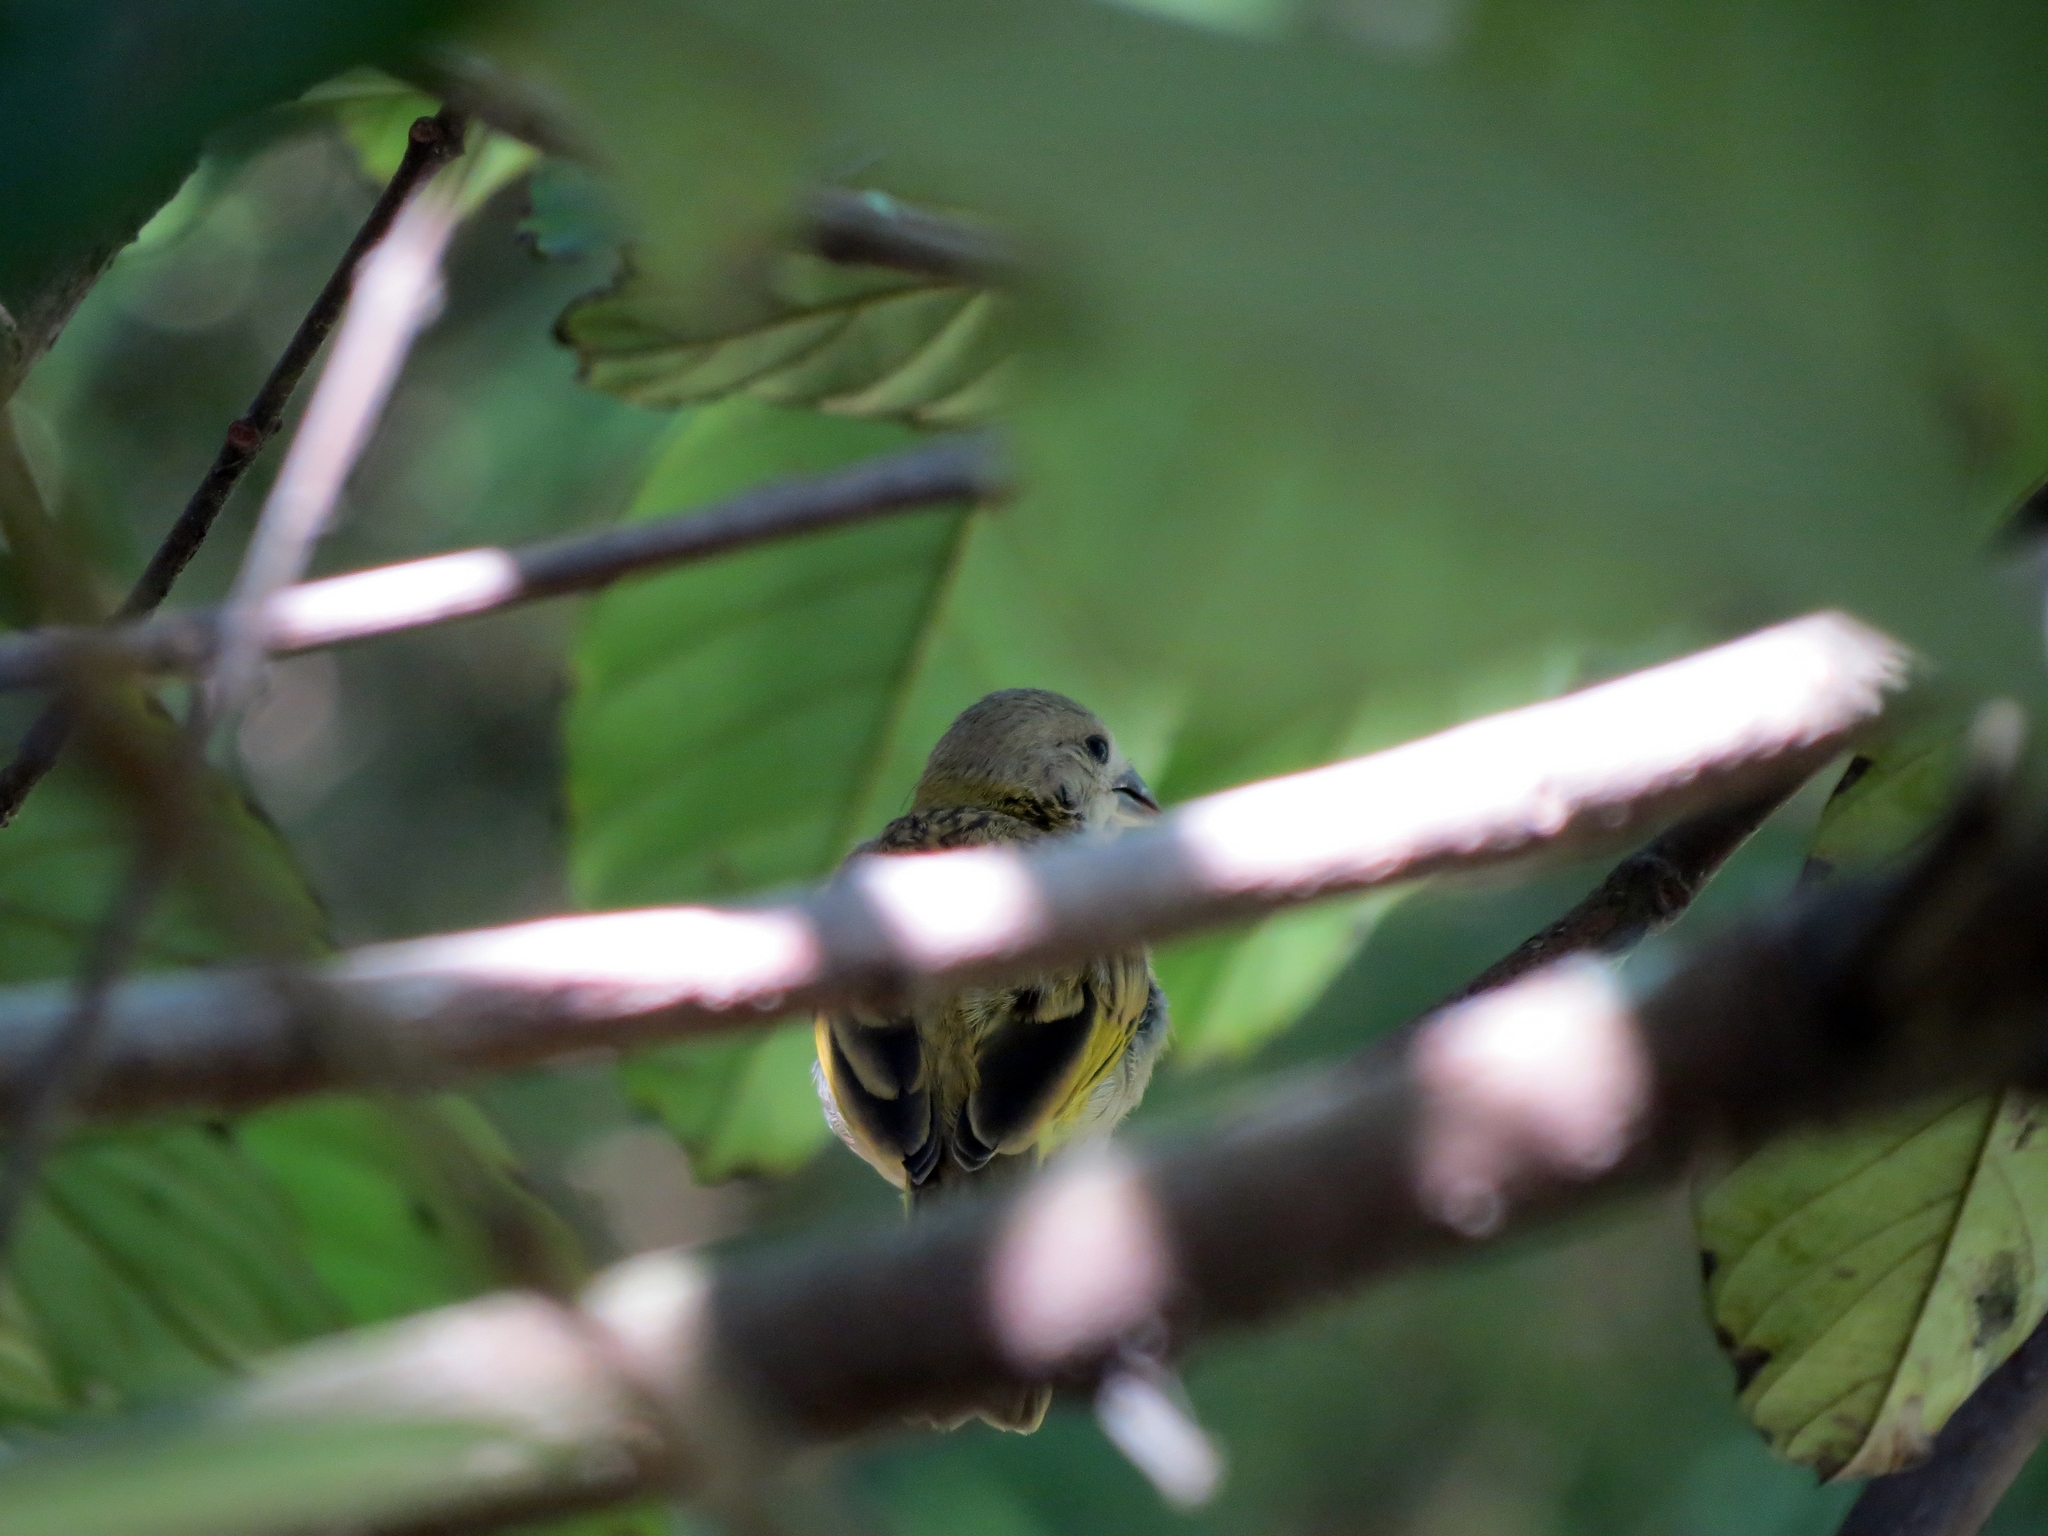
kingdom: Animalia
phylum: Chordata
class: Aves
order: Passeriformes
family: Thraupidae
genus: Sicalis
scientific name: Sicalis flaveola
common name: Saffron finch
